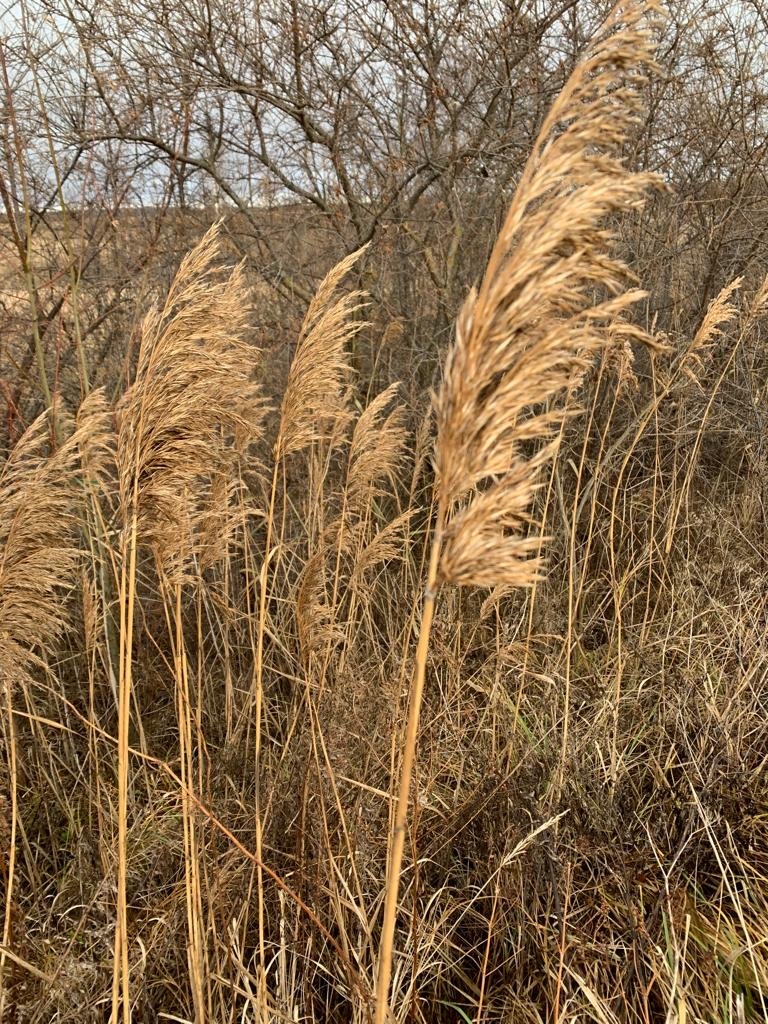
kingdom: Plantae
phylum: Tracheophyta
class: Liliopsida
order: Poales
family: Poaceae
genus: Phragmites
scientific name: Phragmites australis
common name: Common reed
